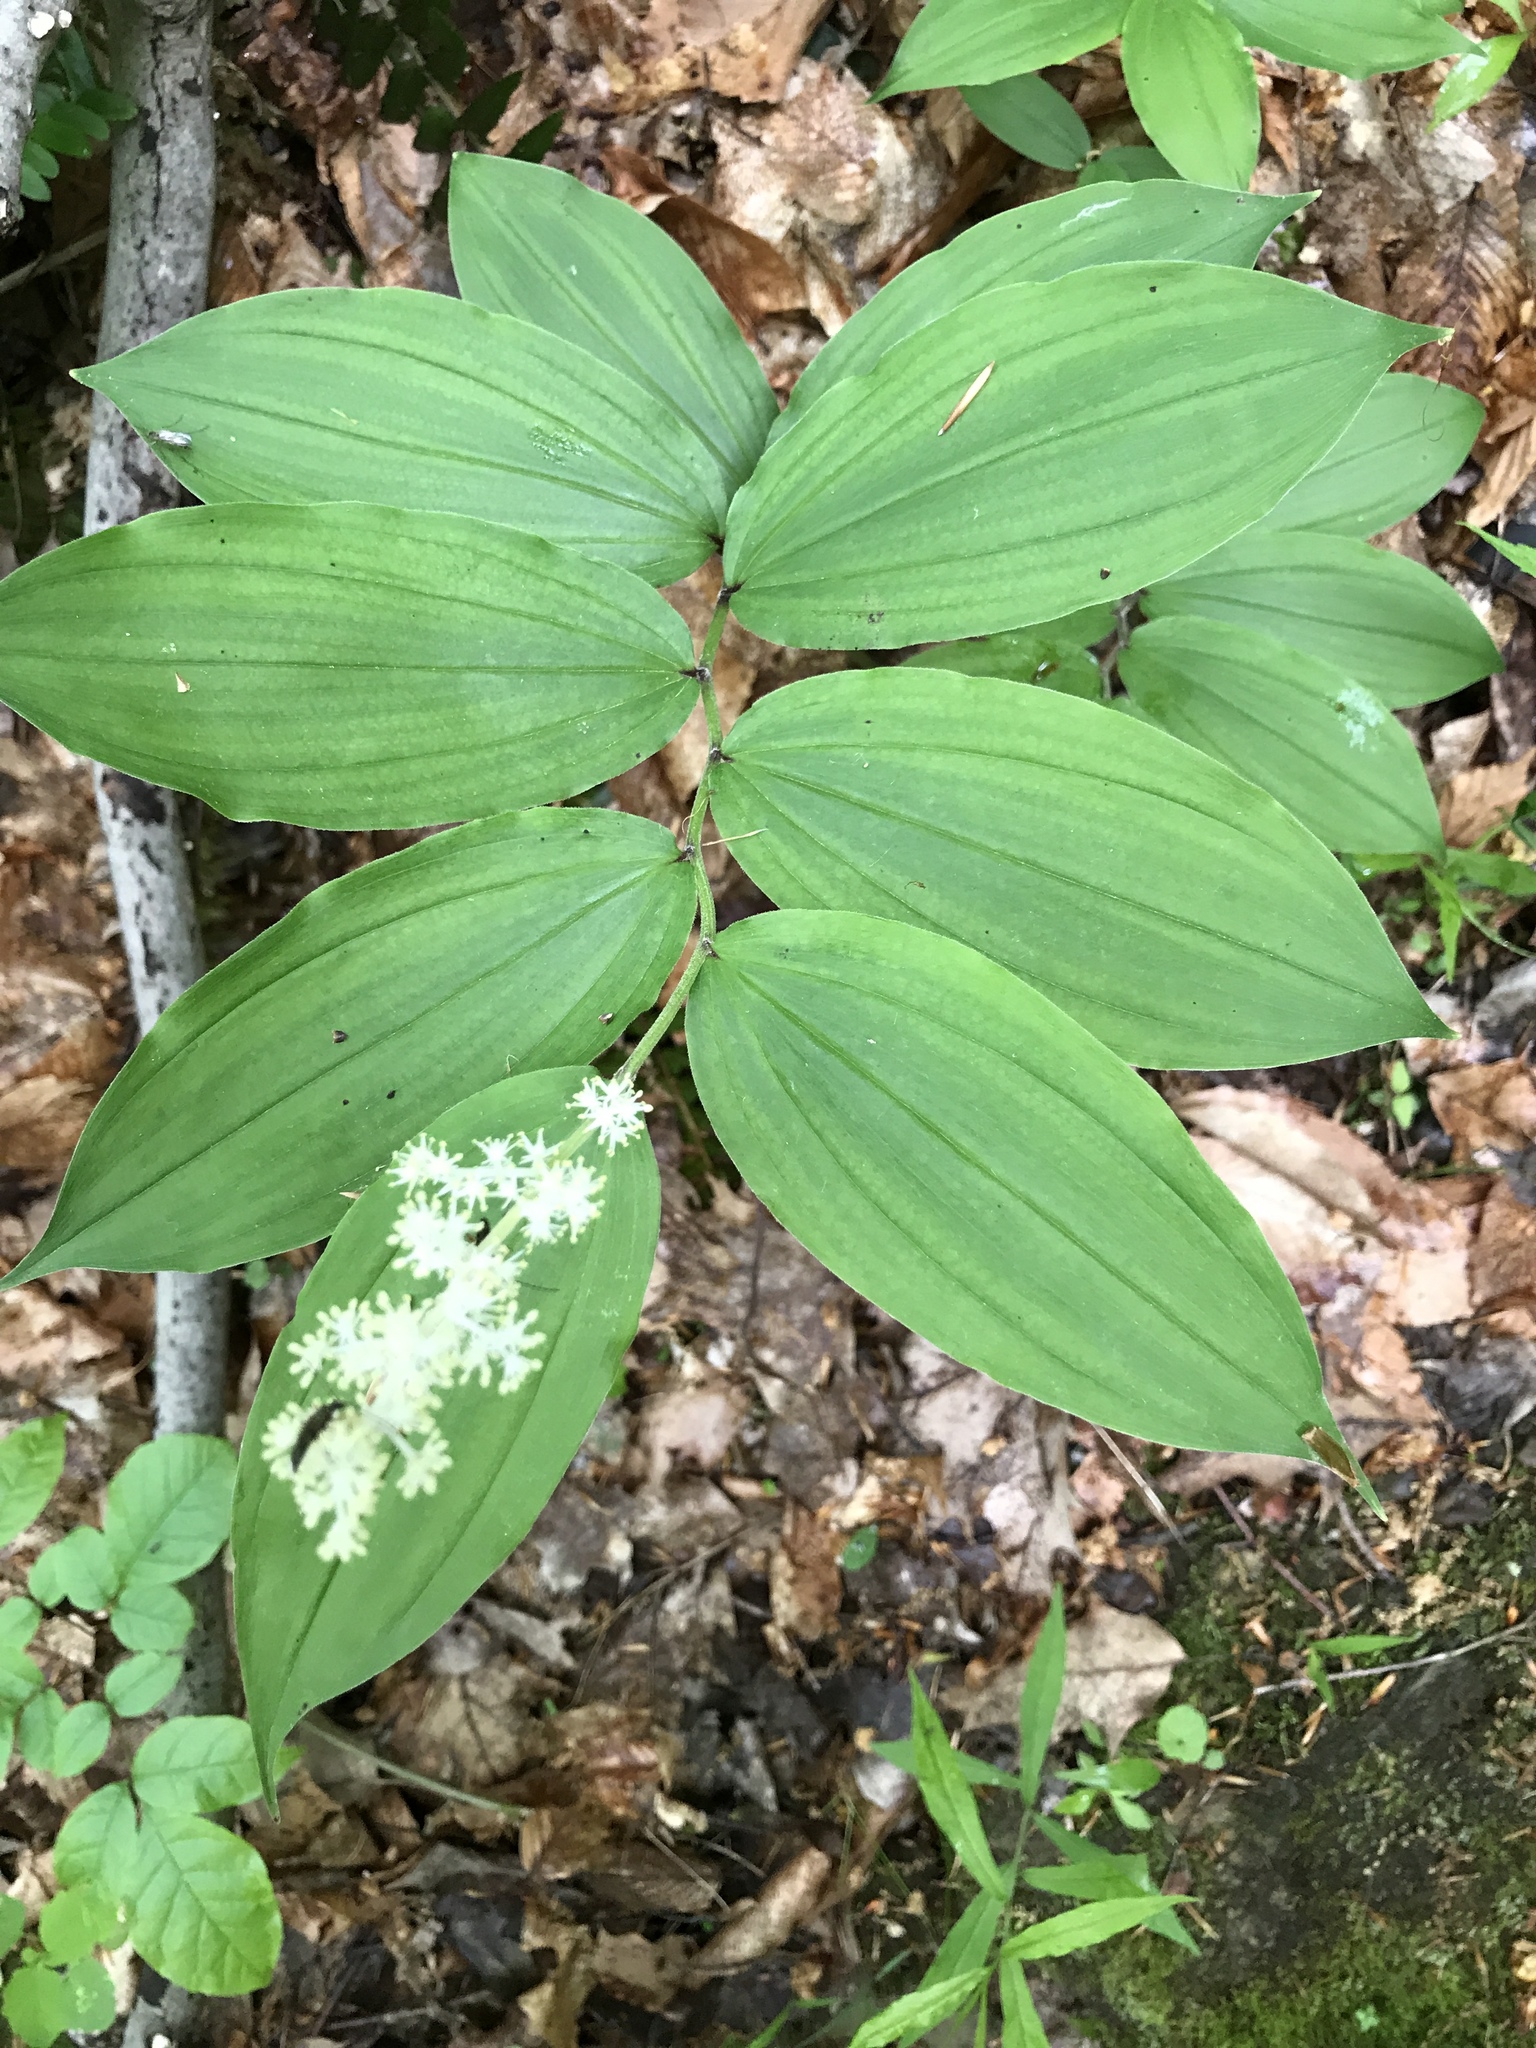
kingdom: Plantae
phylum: Tracheophyta
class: Liliopsida
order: Asparagales
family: Asparagaceae
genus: Maianthemum
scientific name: Maianthemum racemosum
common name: False spikenard
